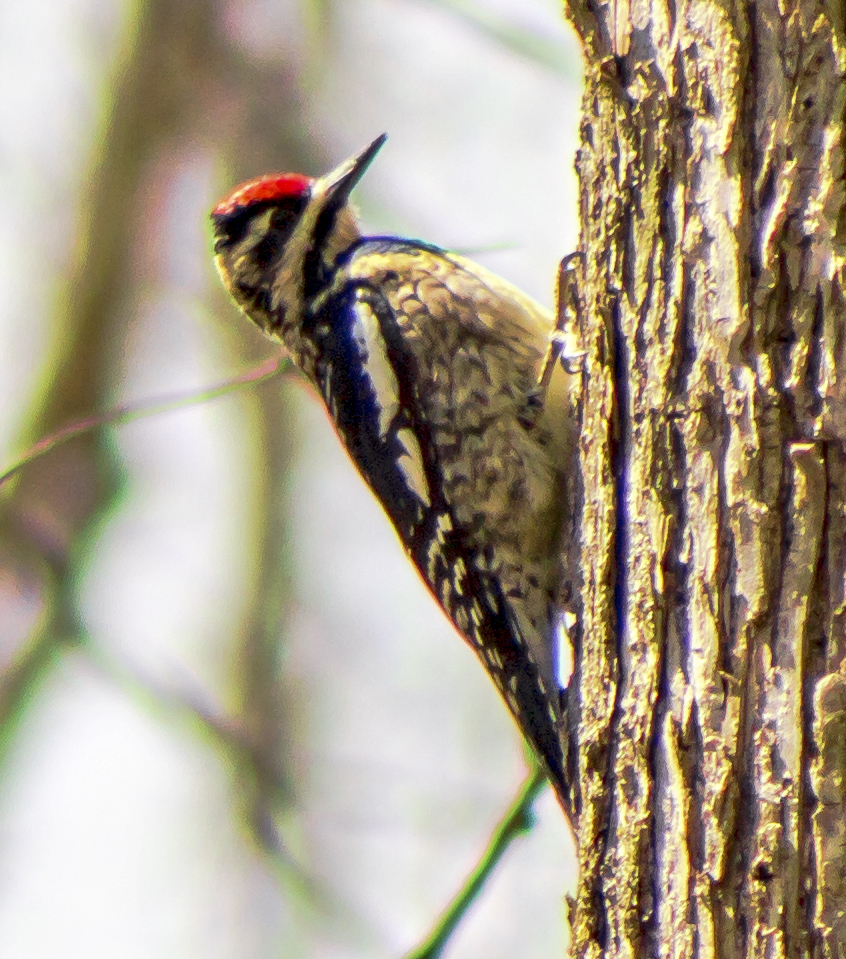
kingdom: Animalia
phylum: Chordata
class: Aves
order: Piciformes
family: Picidae
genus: Sphyrapicus
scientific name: Sphyrapicus varius
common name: Yellow-bellied sapsucker
